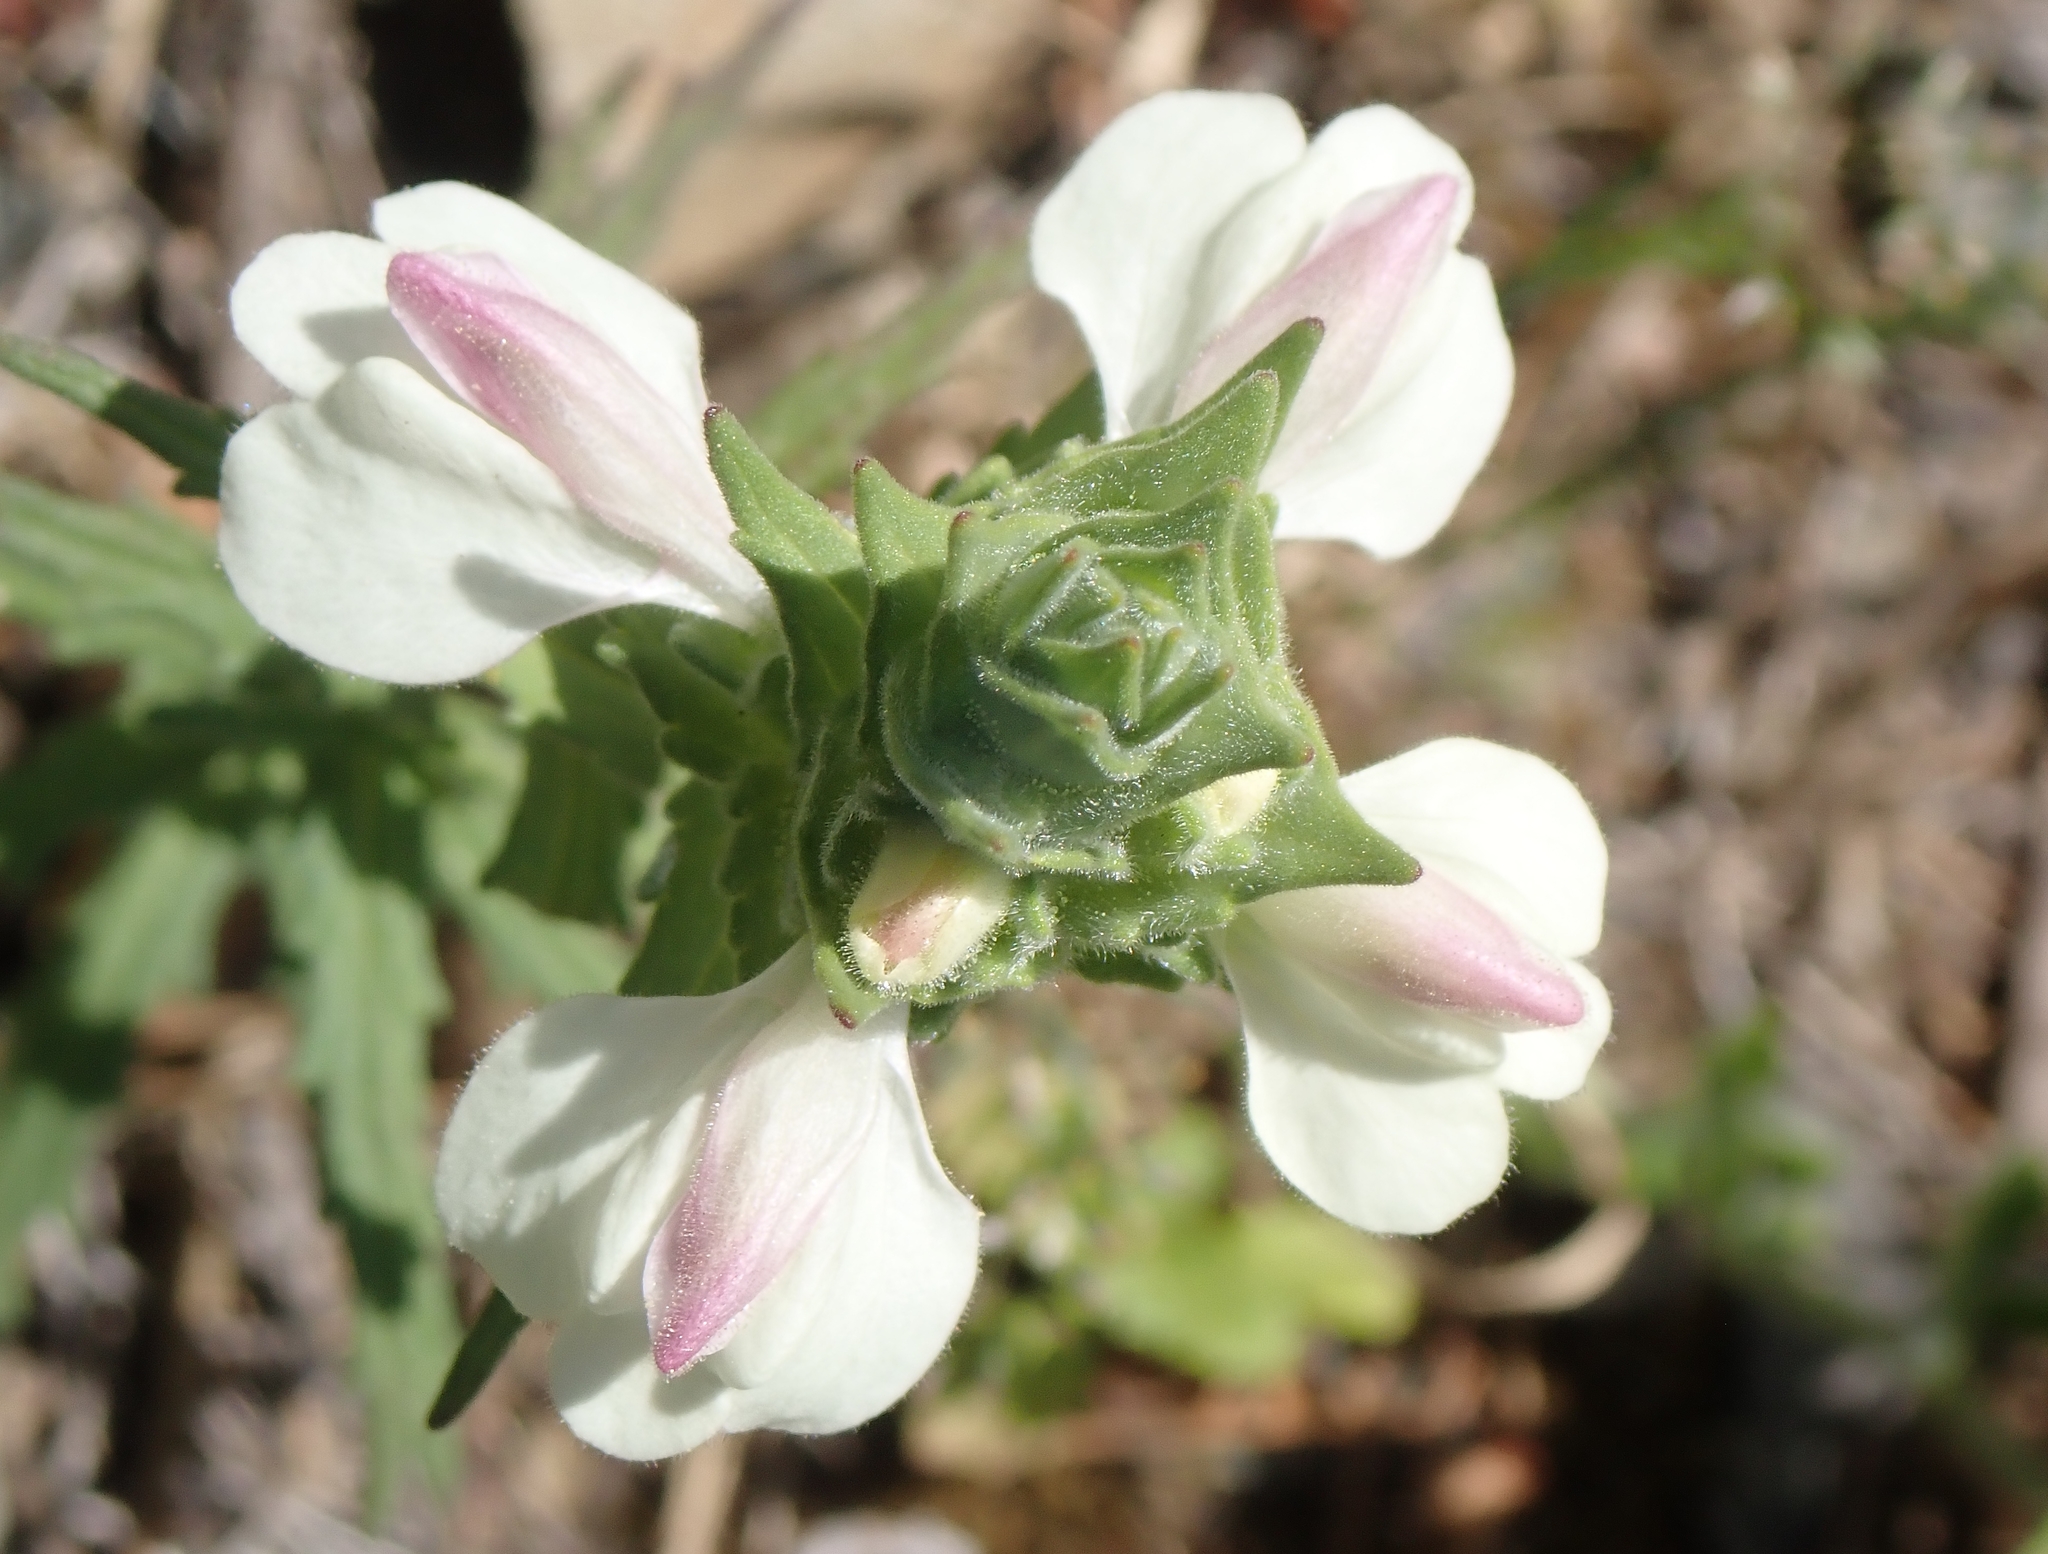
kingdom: Plantae
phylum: Tracheophyta
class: Magnoliopsida
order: Lamiales
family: Orobanchaceae
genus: Bellardia
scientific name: Bellardia trixago
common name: Mediterranean lineseed
